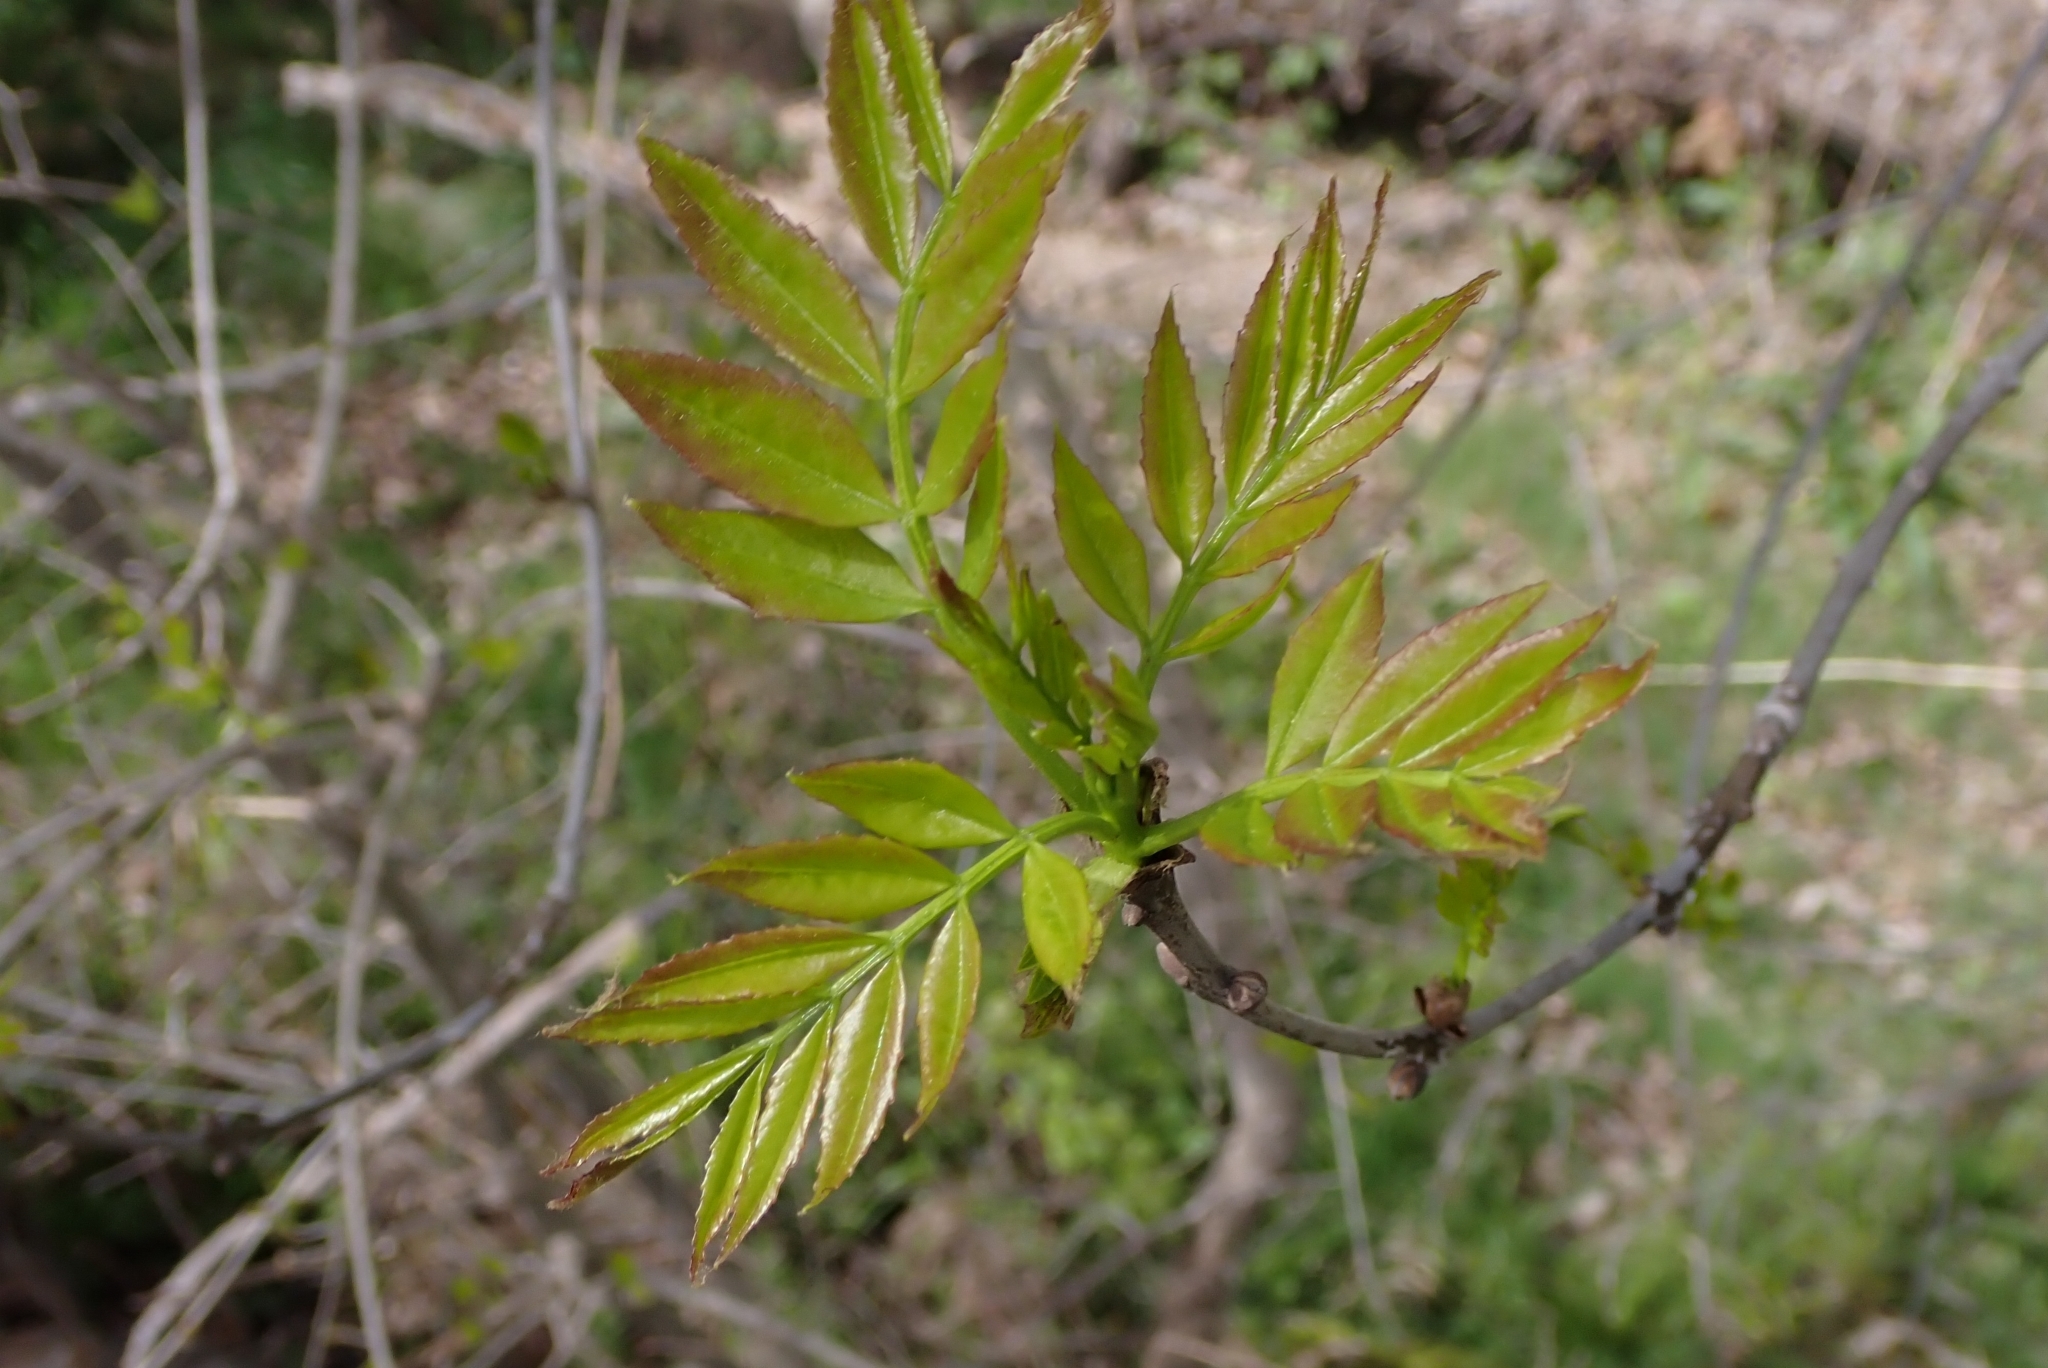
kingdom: Plantae
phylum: Tracheophyta
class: Magnoliopsida
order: Lamiales
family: Oleaceae
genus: Fraxinus
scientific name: Fraxinus angustifolia
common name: Narrow-leafed ash
